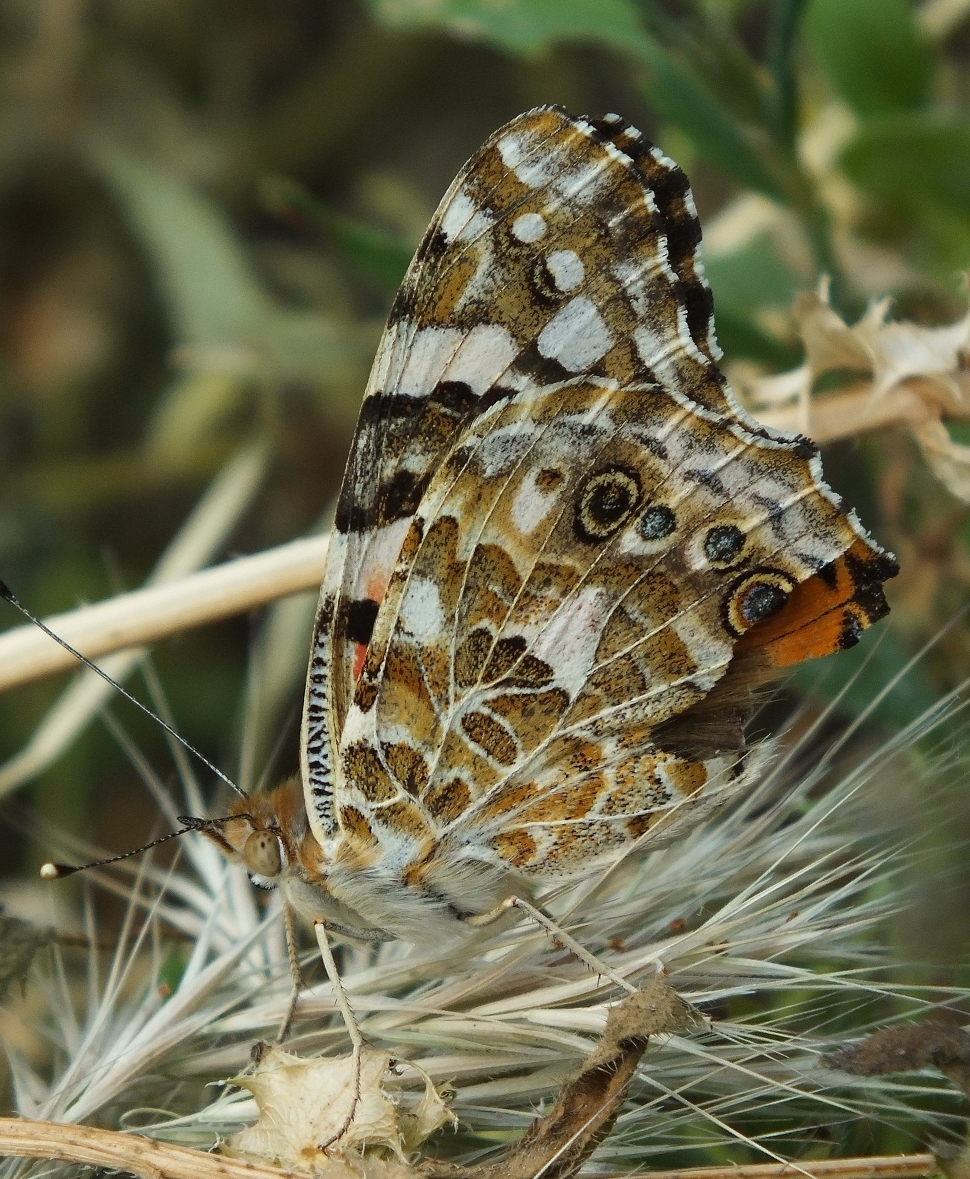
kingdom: Animalia
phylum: Arthropoda
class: Insecta
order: Lepidoptera
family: Nymphalidae
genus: Vanessa
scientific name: Vanessa cardui
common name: Painted lady
